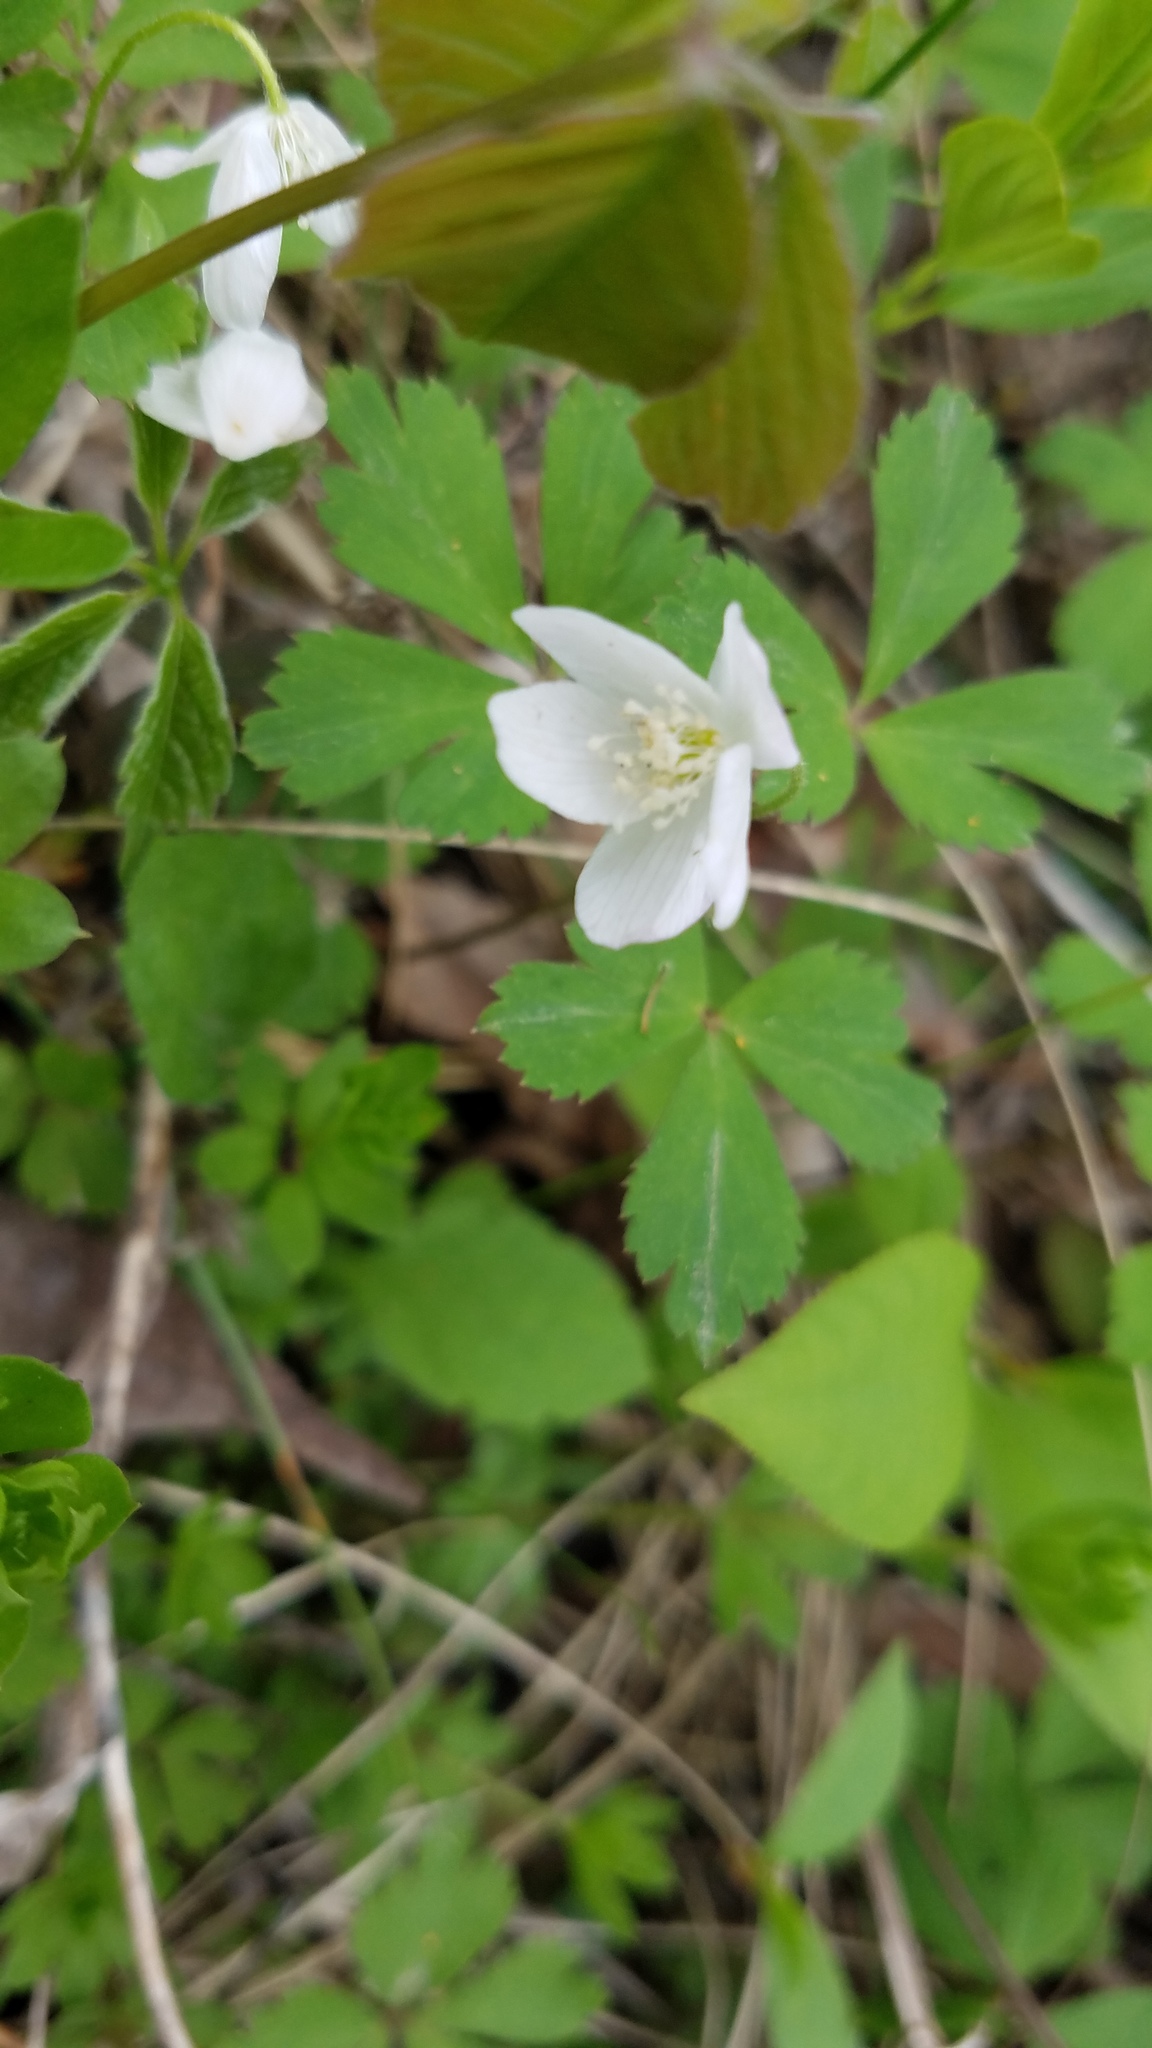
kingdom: Plantae
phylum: Tracheophyta
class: Magnoliopsida
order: Ranunculales
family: Ranunculaceae
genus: Anemone
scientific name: Anemone quinquefolia
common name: Wood anemone
